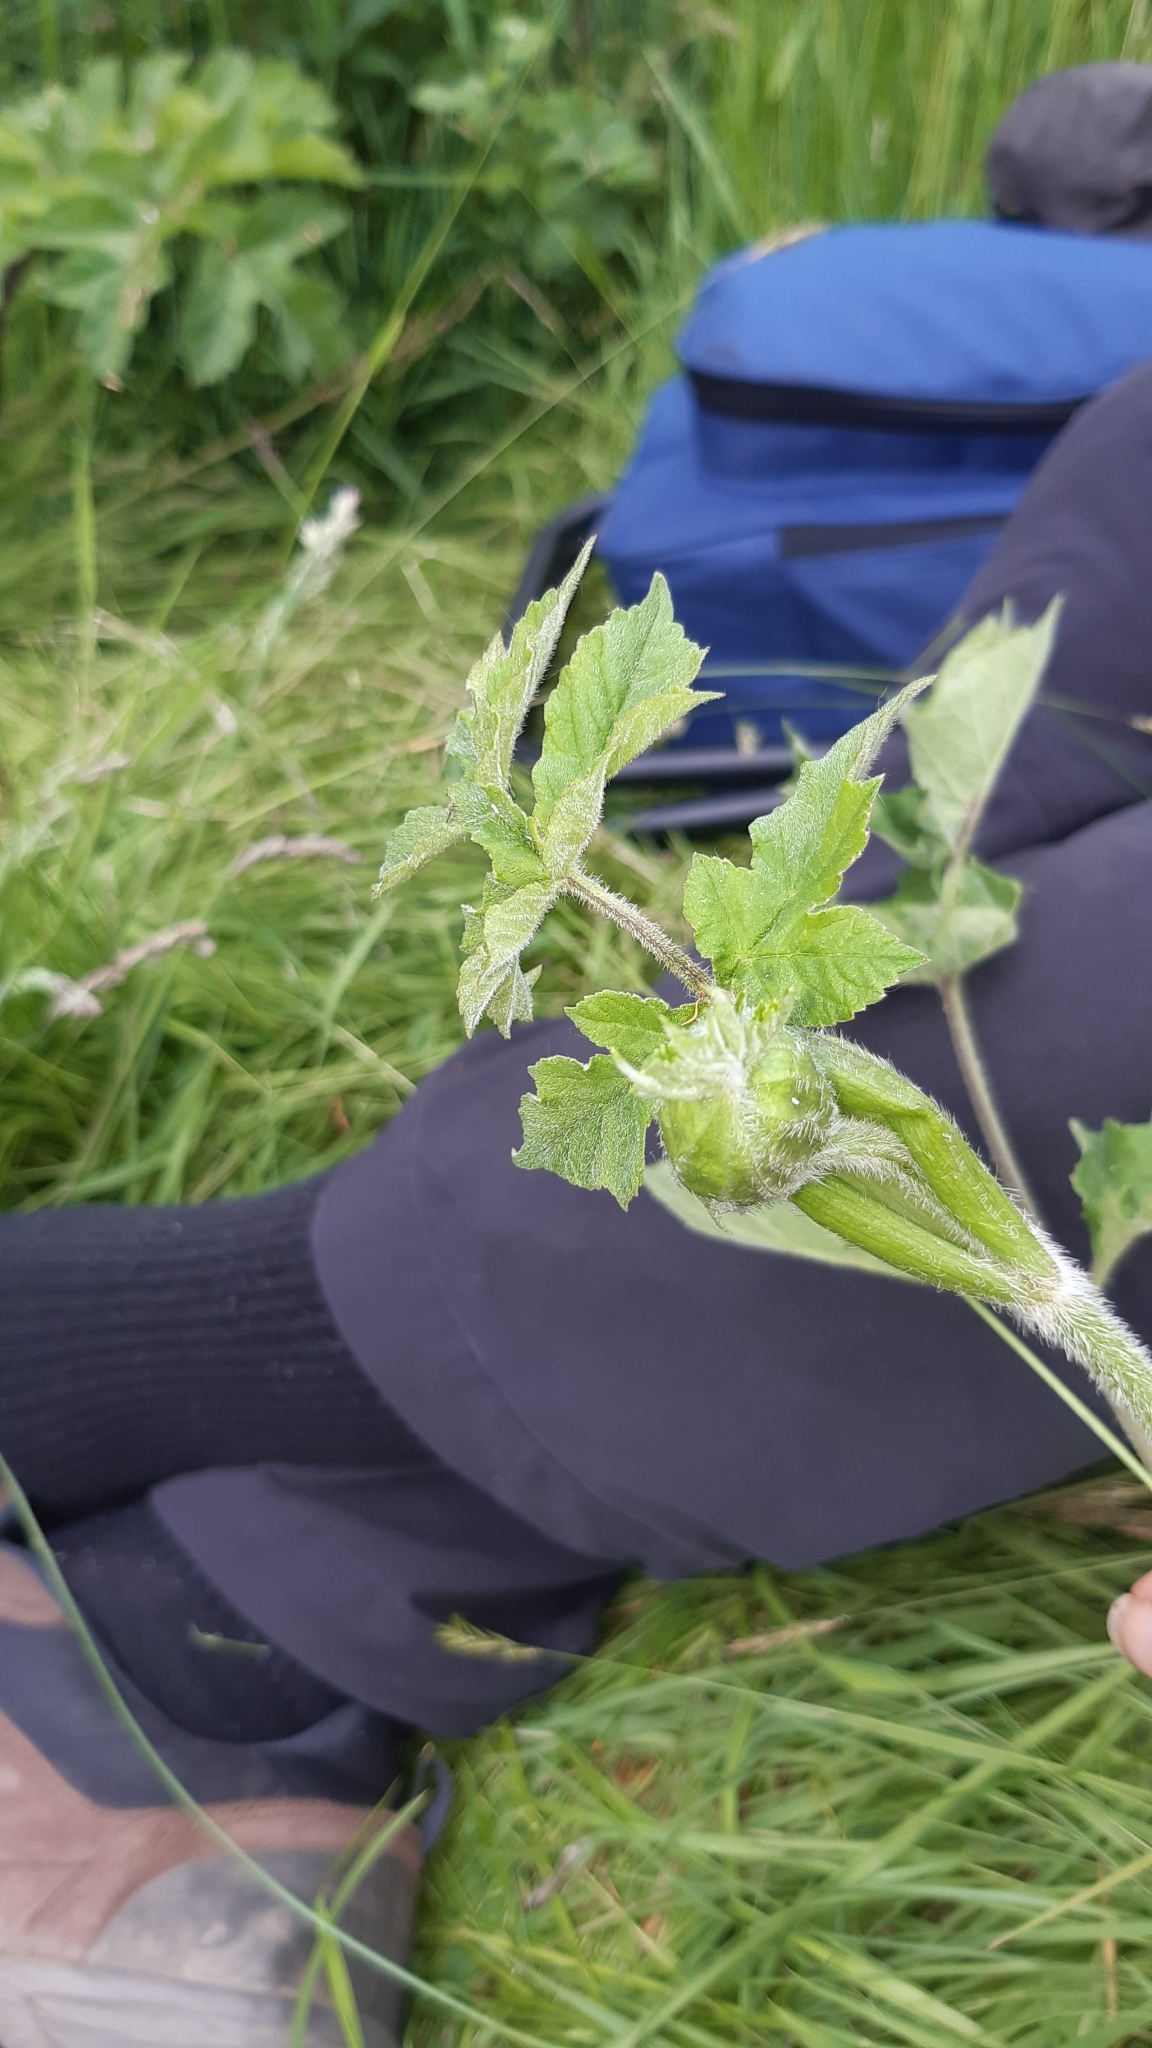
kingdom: Plantae
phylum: Tracheophyta
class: Magnoliopsida
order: Apiales
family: Apiaceae
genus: Heracleum
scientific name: Heracleum sphondylium
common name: Hogweed
